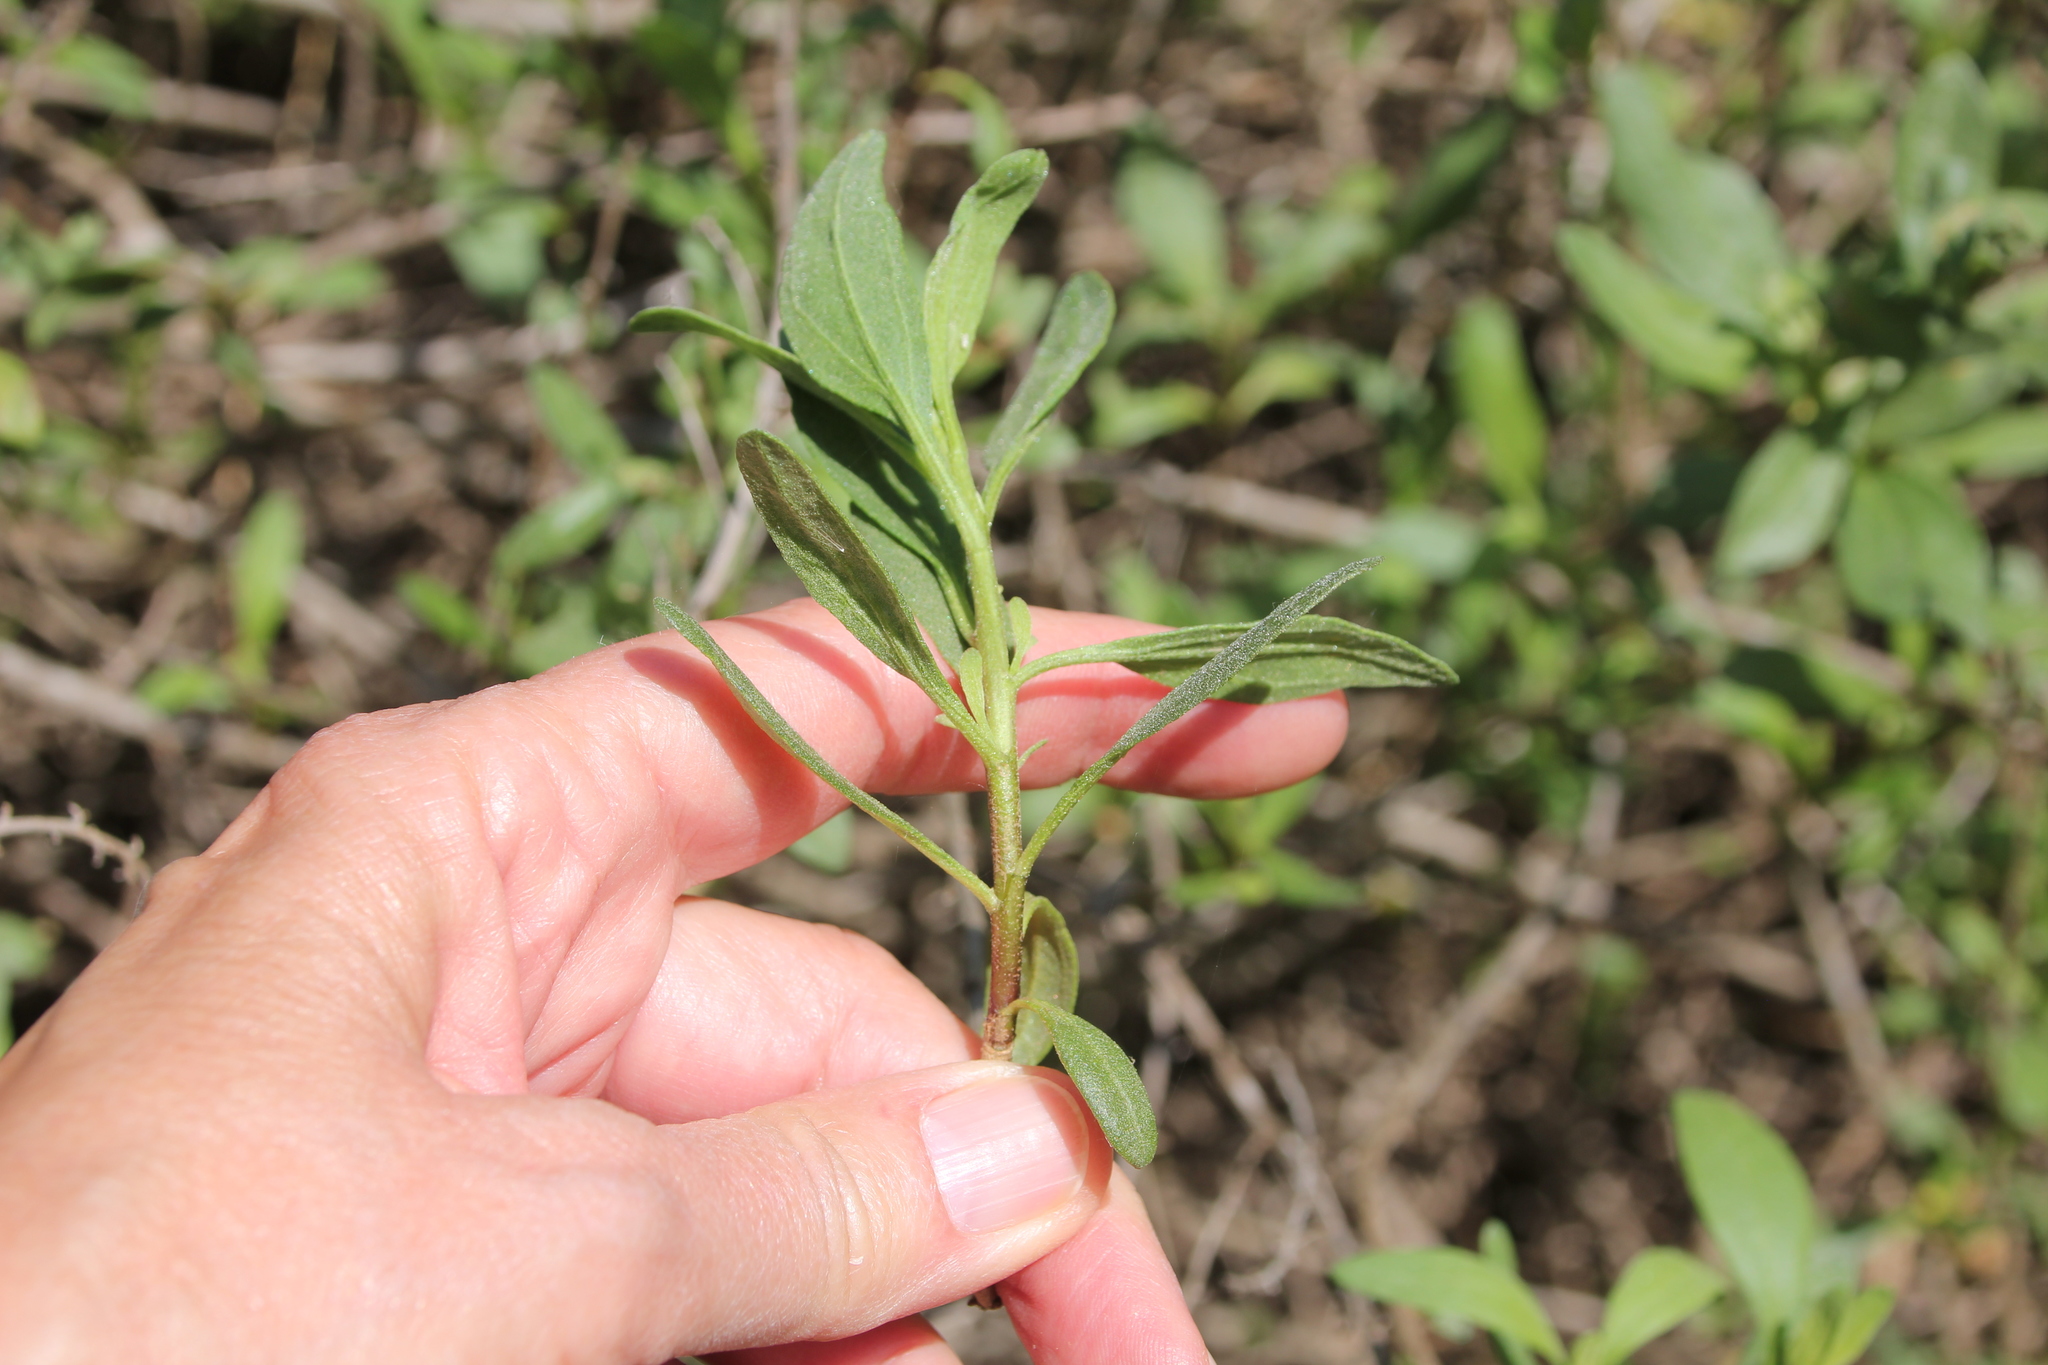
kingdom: Plantae
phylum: Tracheophyta
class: Magnoliopsida
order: Asterales
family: Asteraceae
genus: Iva
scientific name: Iva hayesiana
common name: San diego marsh-elder
